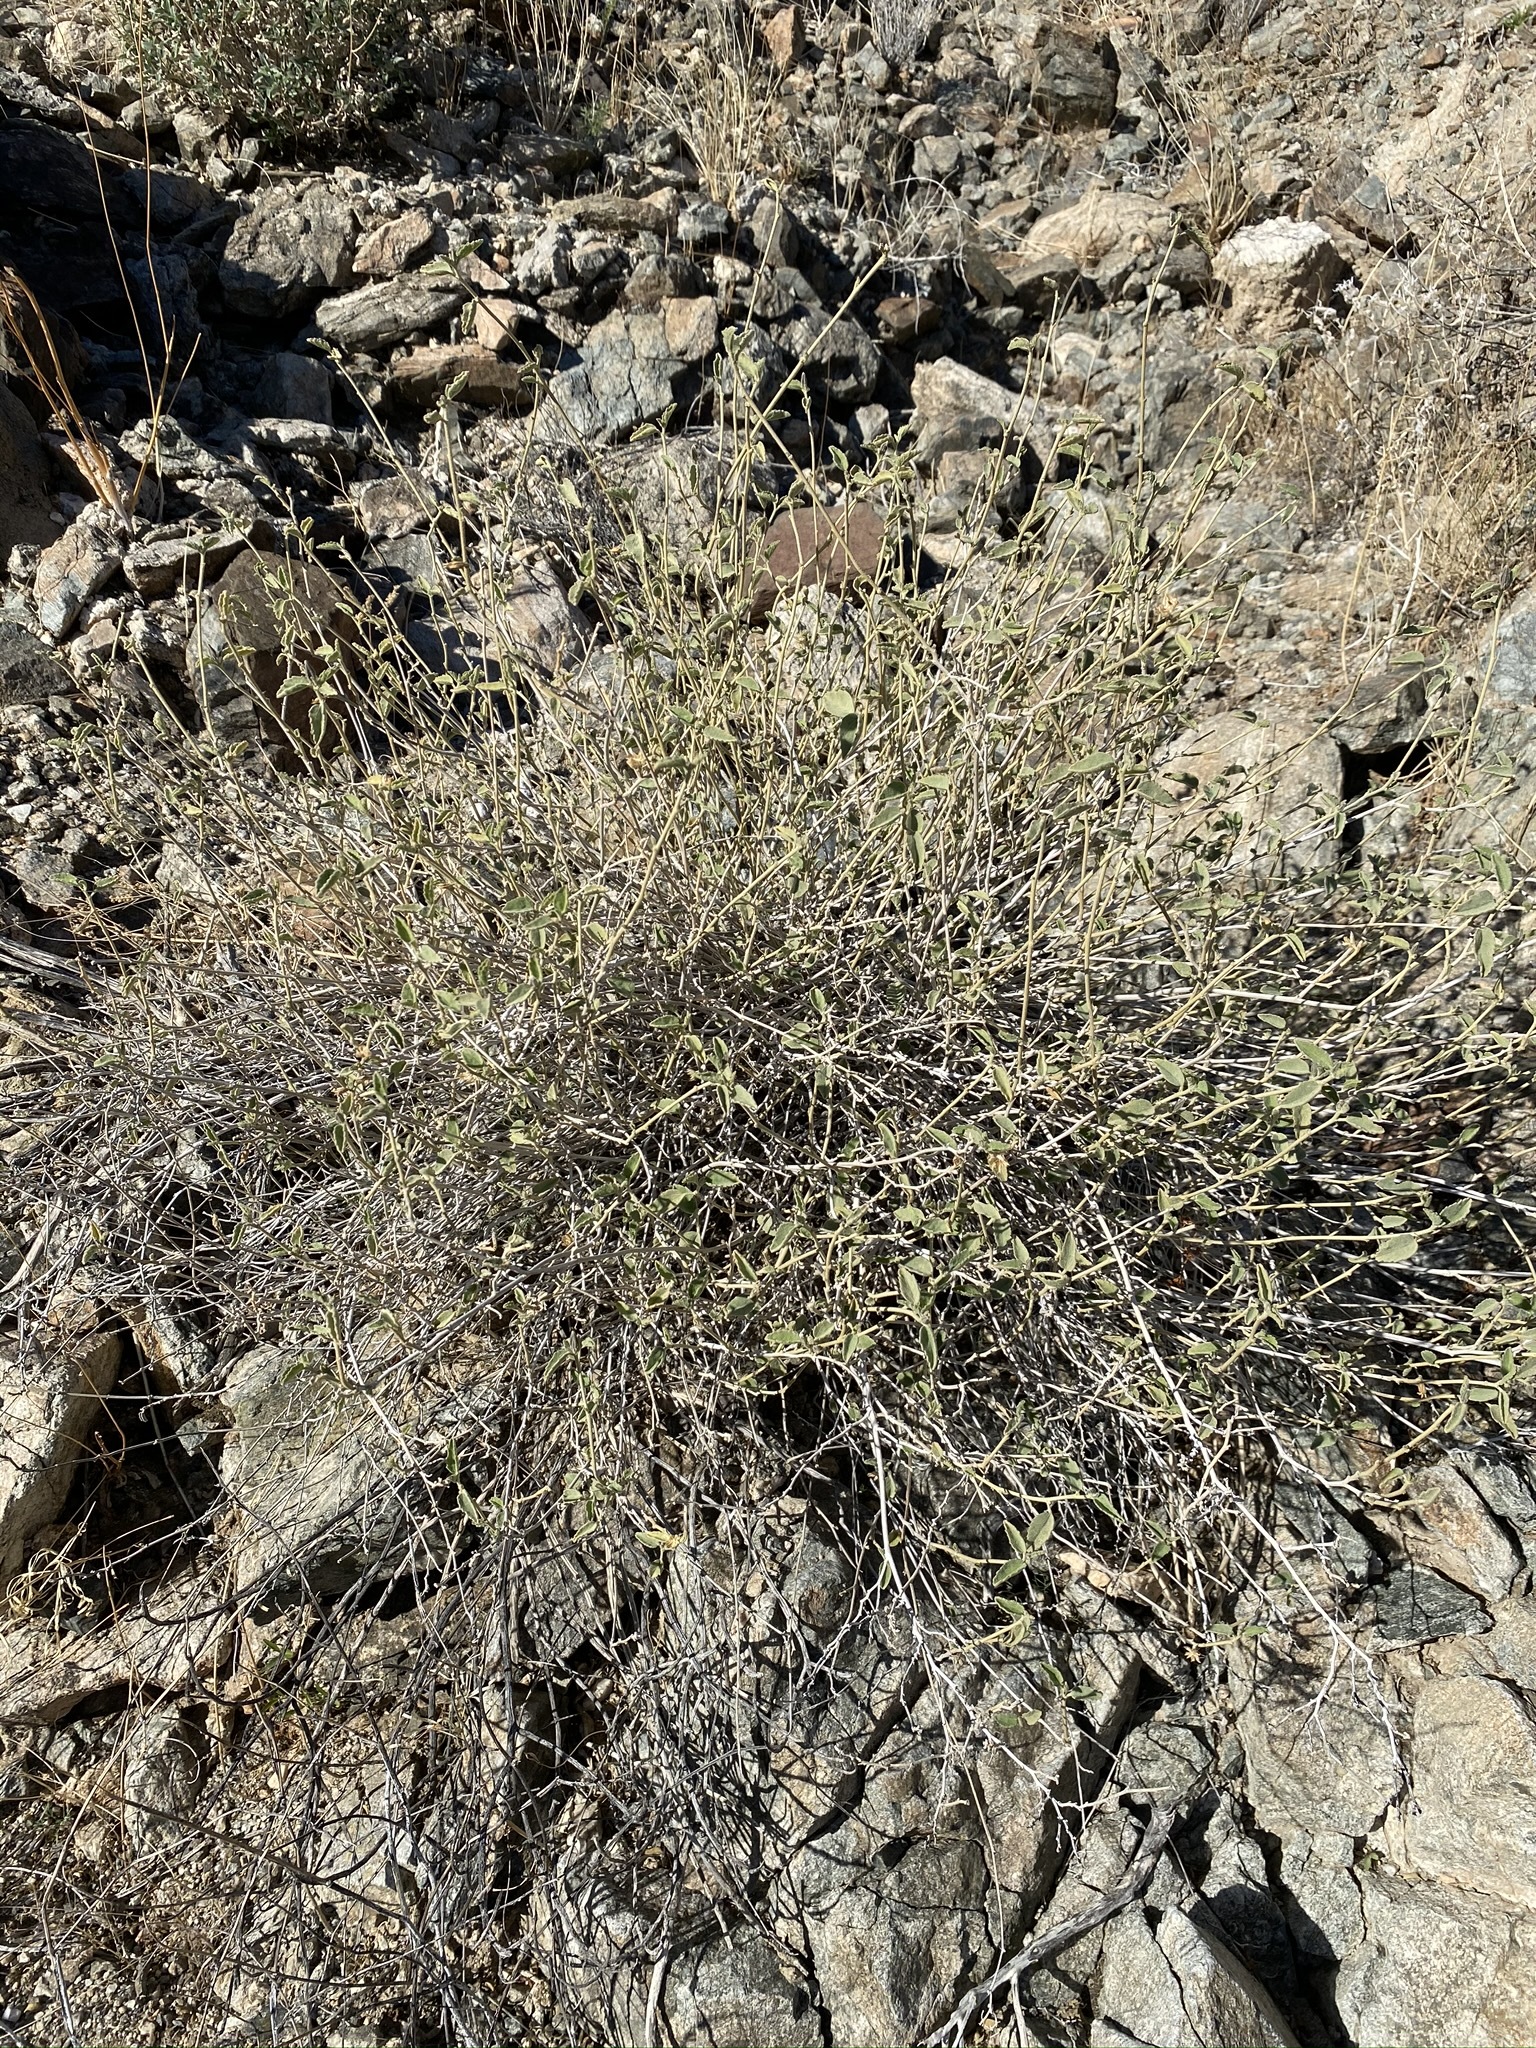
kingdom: Plantae
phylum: Tracheophyta
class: Magnoliopsida
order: Malvales
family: Malvaceae
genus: Hibiscus
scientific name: Hibiscus denudatus
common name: Paleface
